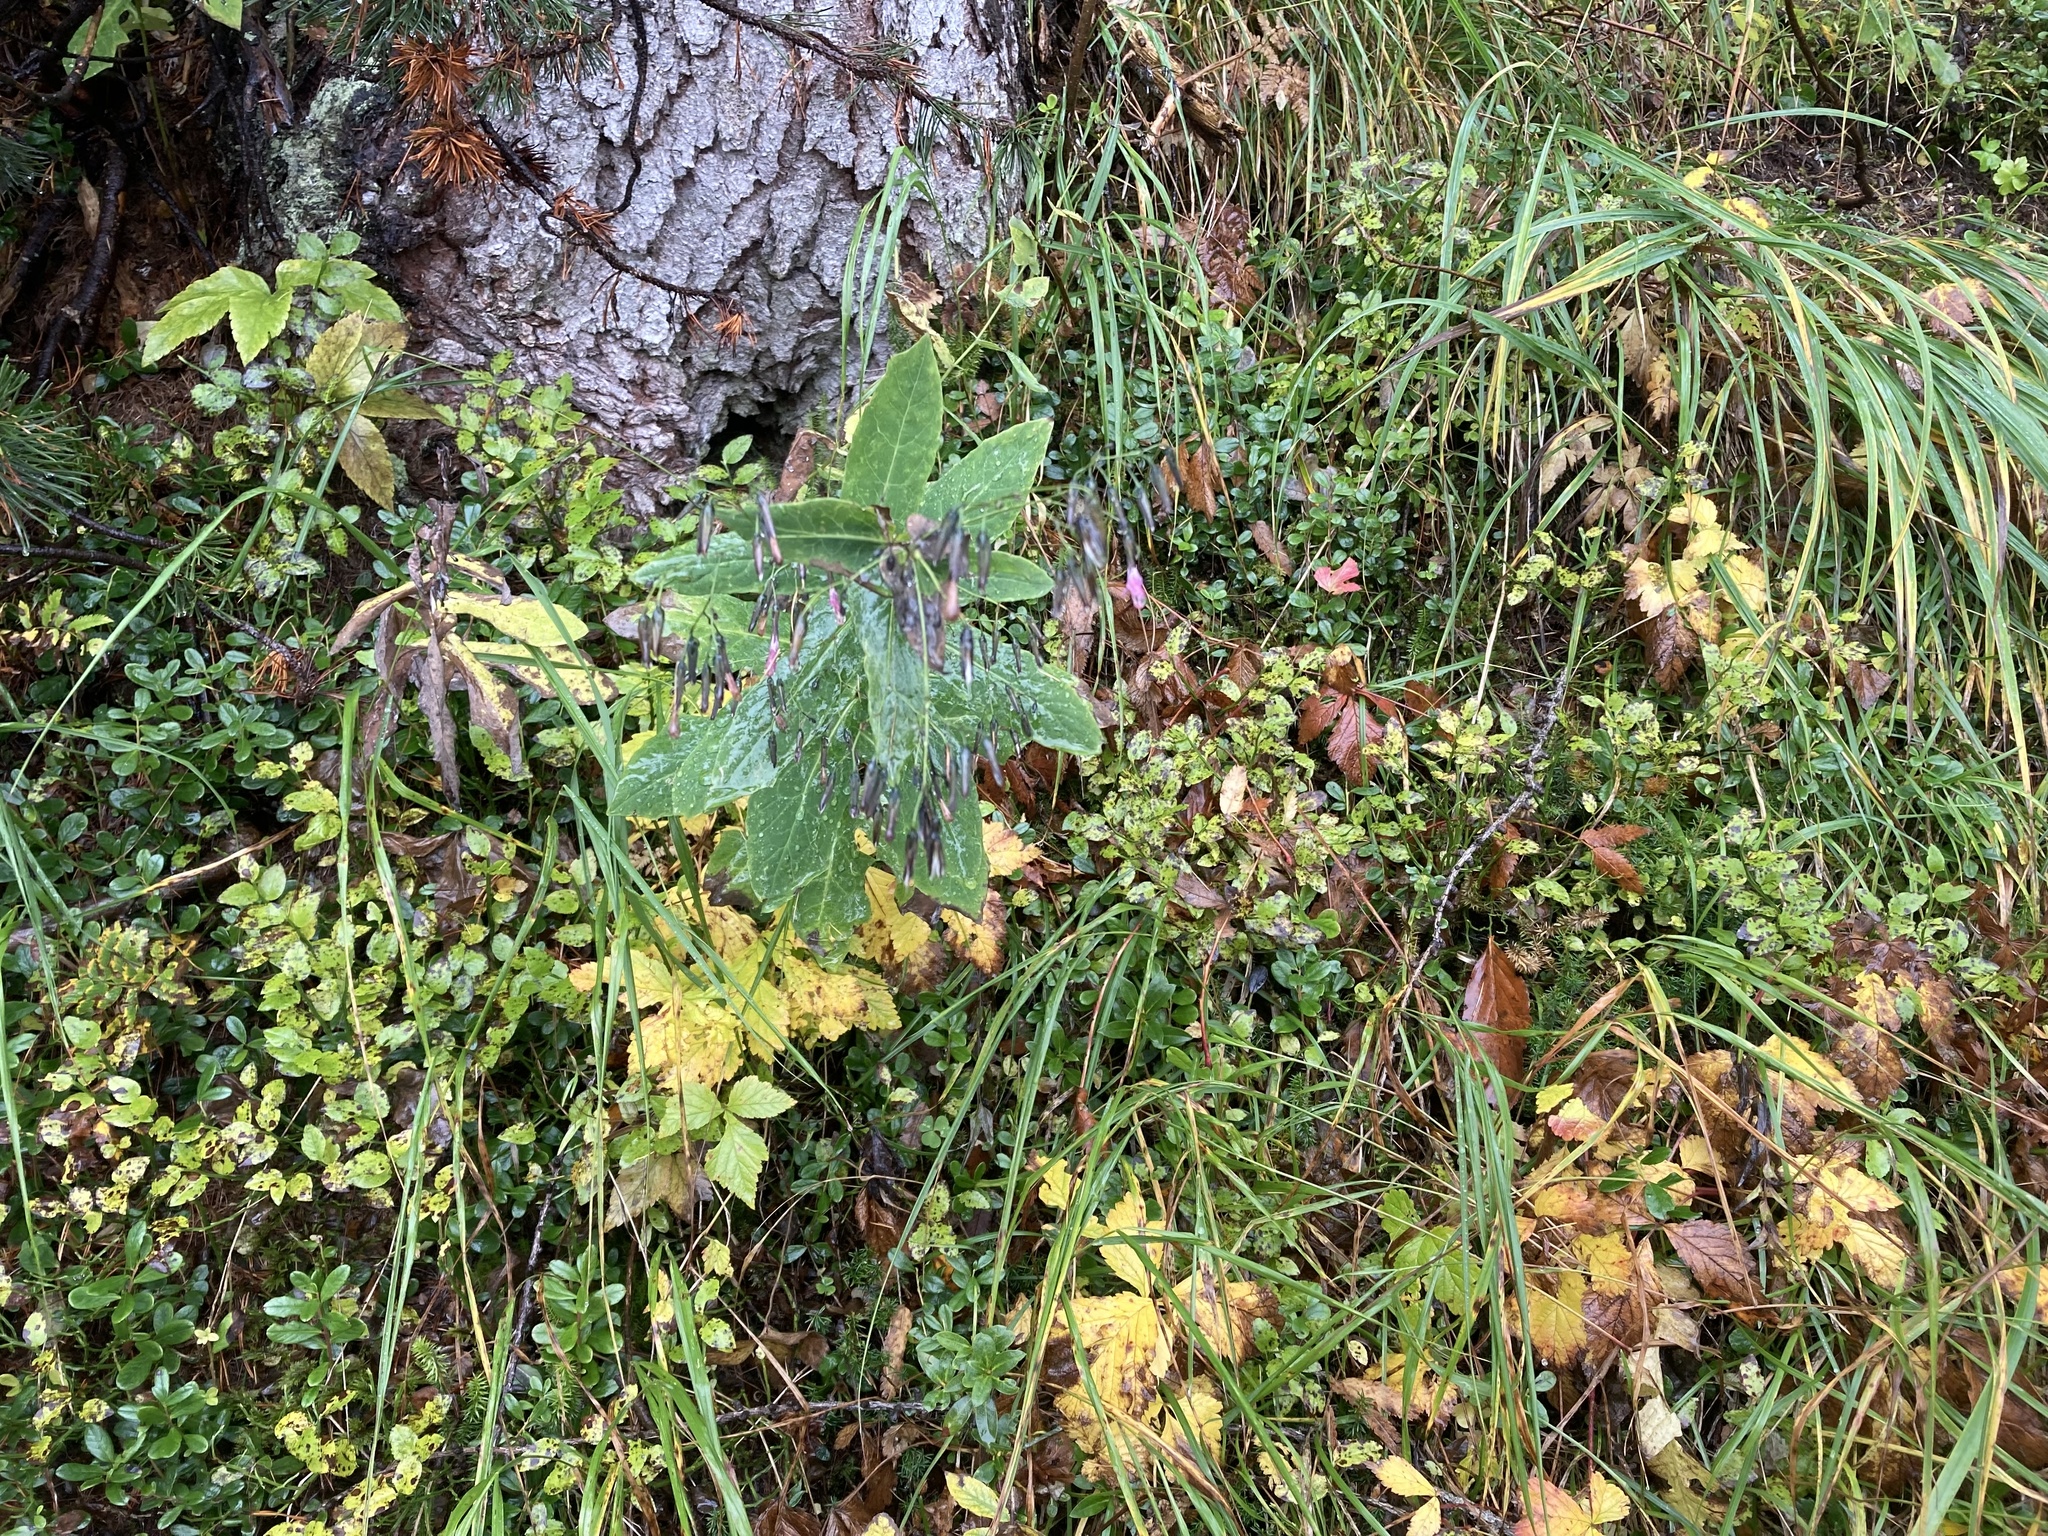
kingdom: Plantae
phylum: Tracheophyta
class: Magnoliopsida
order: Asterales
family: Asteraceae
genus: Prenanthes
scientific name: Prenanthes purpurea
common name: Purple lettuce
